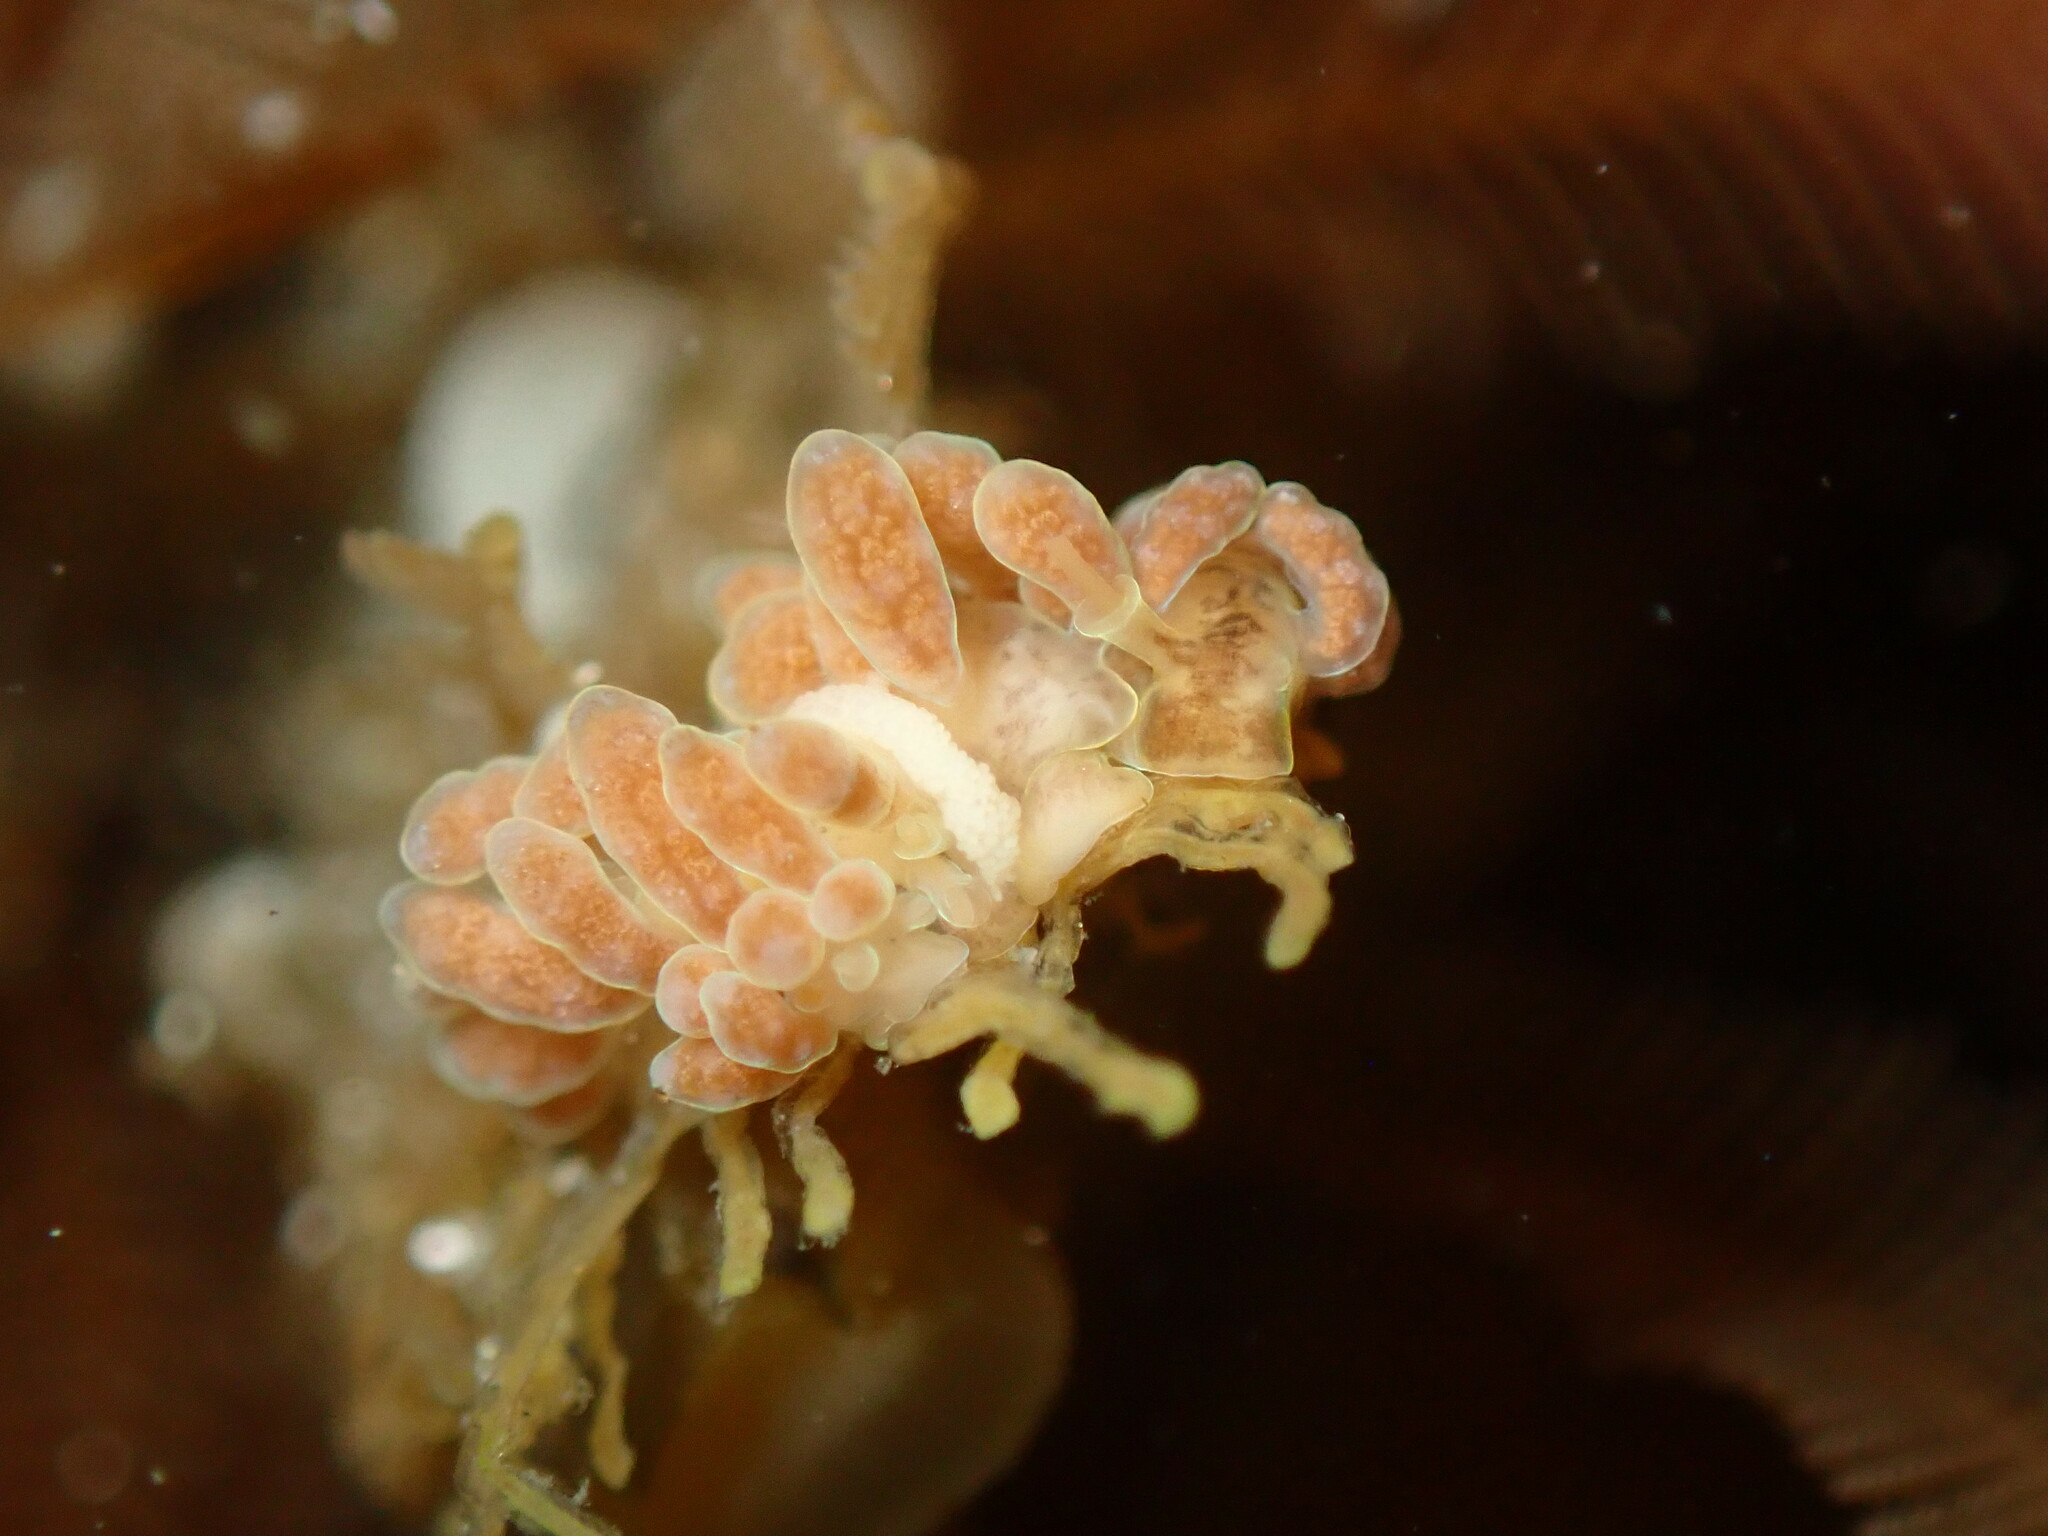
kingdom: Animalia
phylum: Mollusca
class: Gastropoda
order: Nudibranchia
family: Dotidae
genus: Doto
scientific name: Doto columbiana
